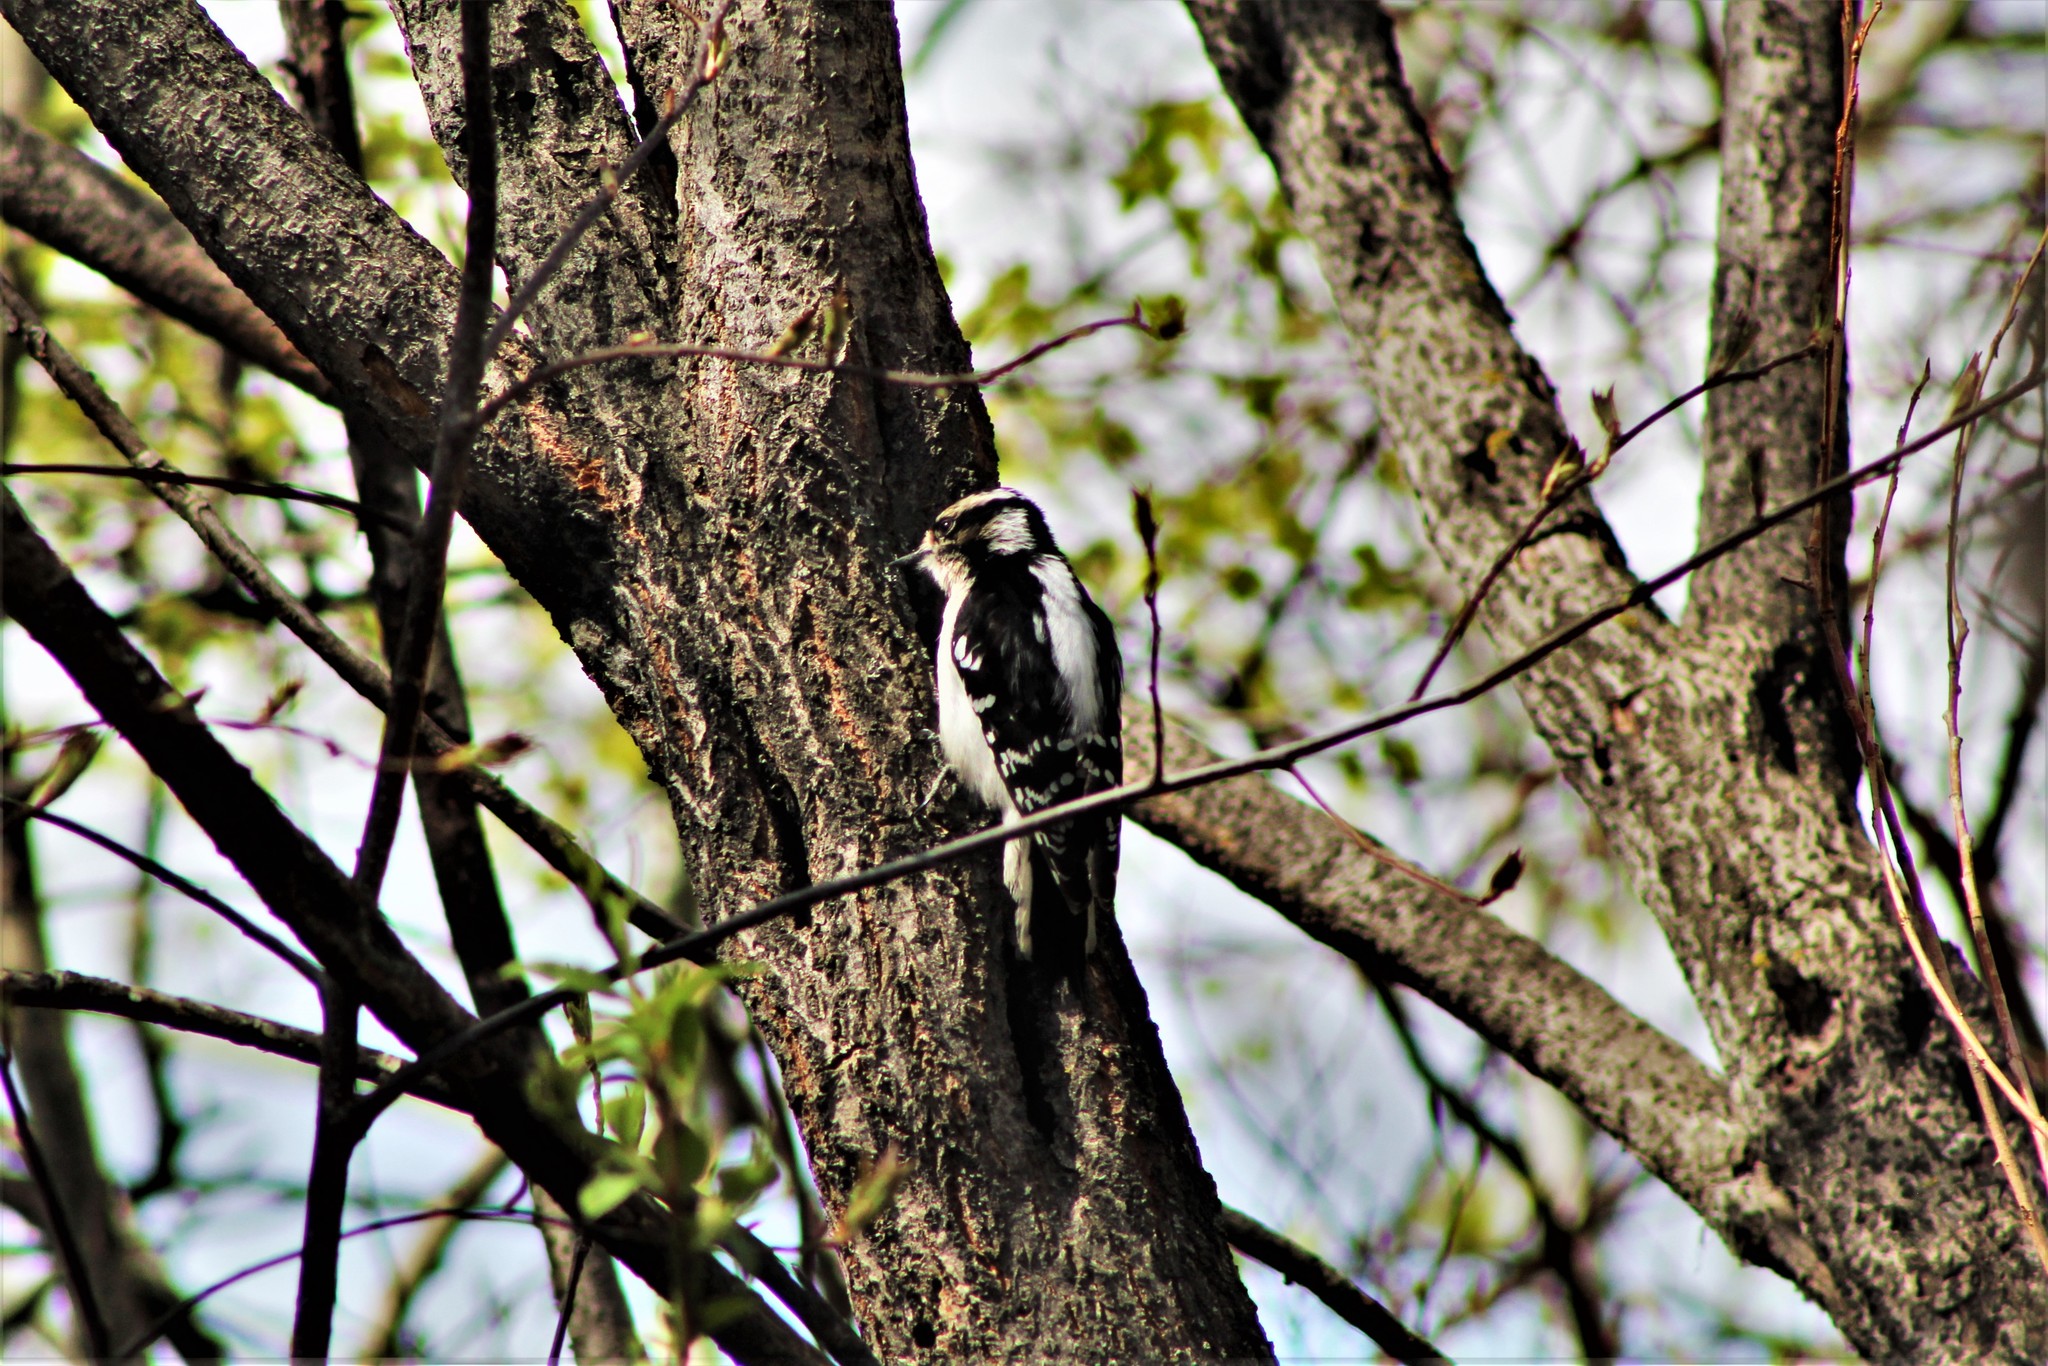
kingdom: Animalia
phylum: Chordata
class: Aves
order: Piciformes
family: Picidae
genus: Dryobates
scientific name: Dryobates pubescens
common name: Downy woodpecker
